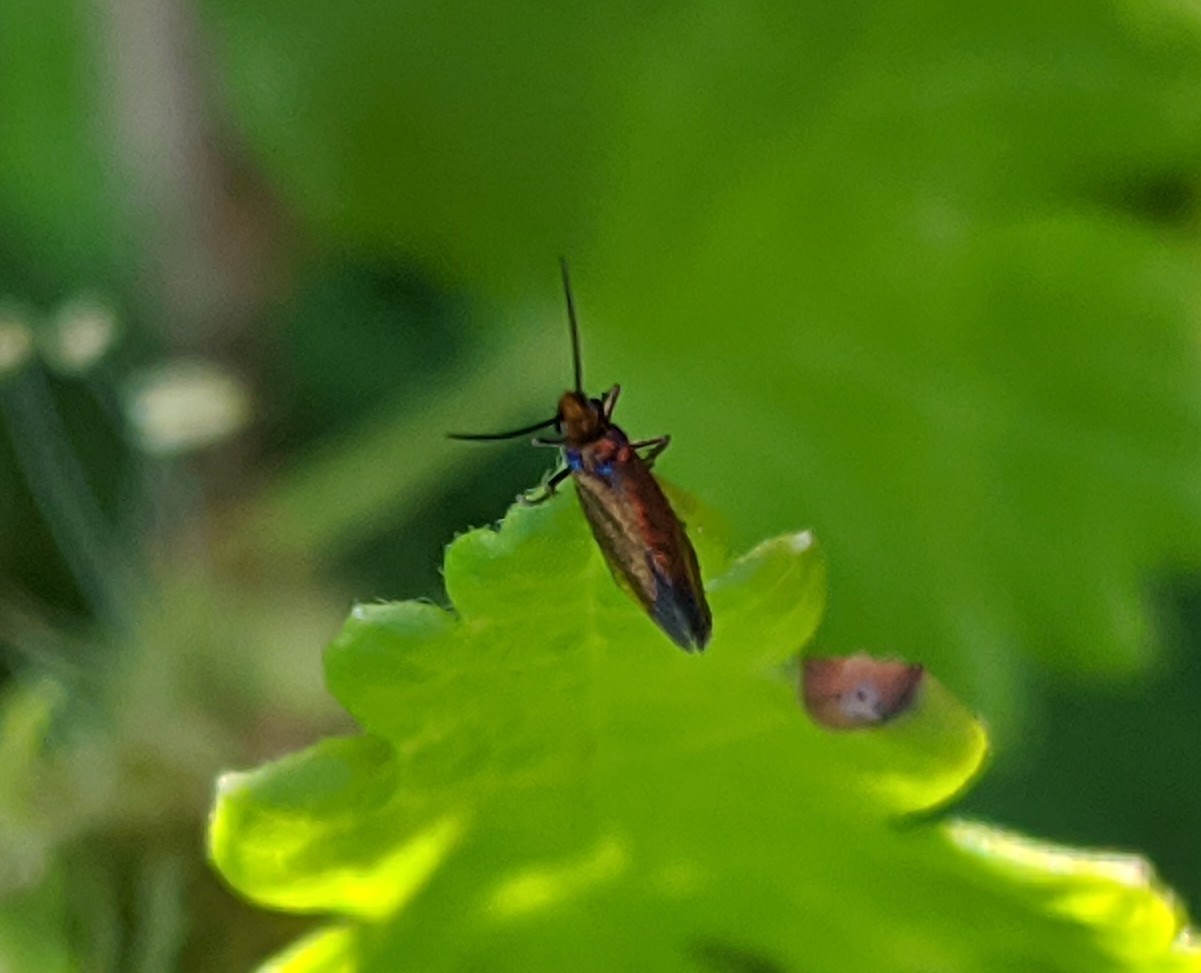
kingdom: Animalia
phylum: Arthropoda
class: Insecta
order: Lepidoptera
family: Micropterigidae
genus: Micropterix
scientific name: Micropterix calthella
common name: Plain gold
